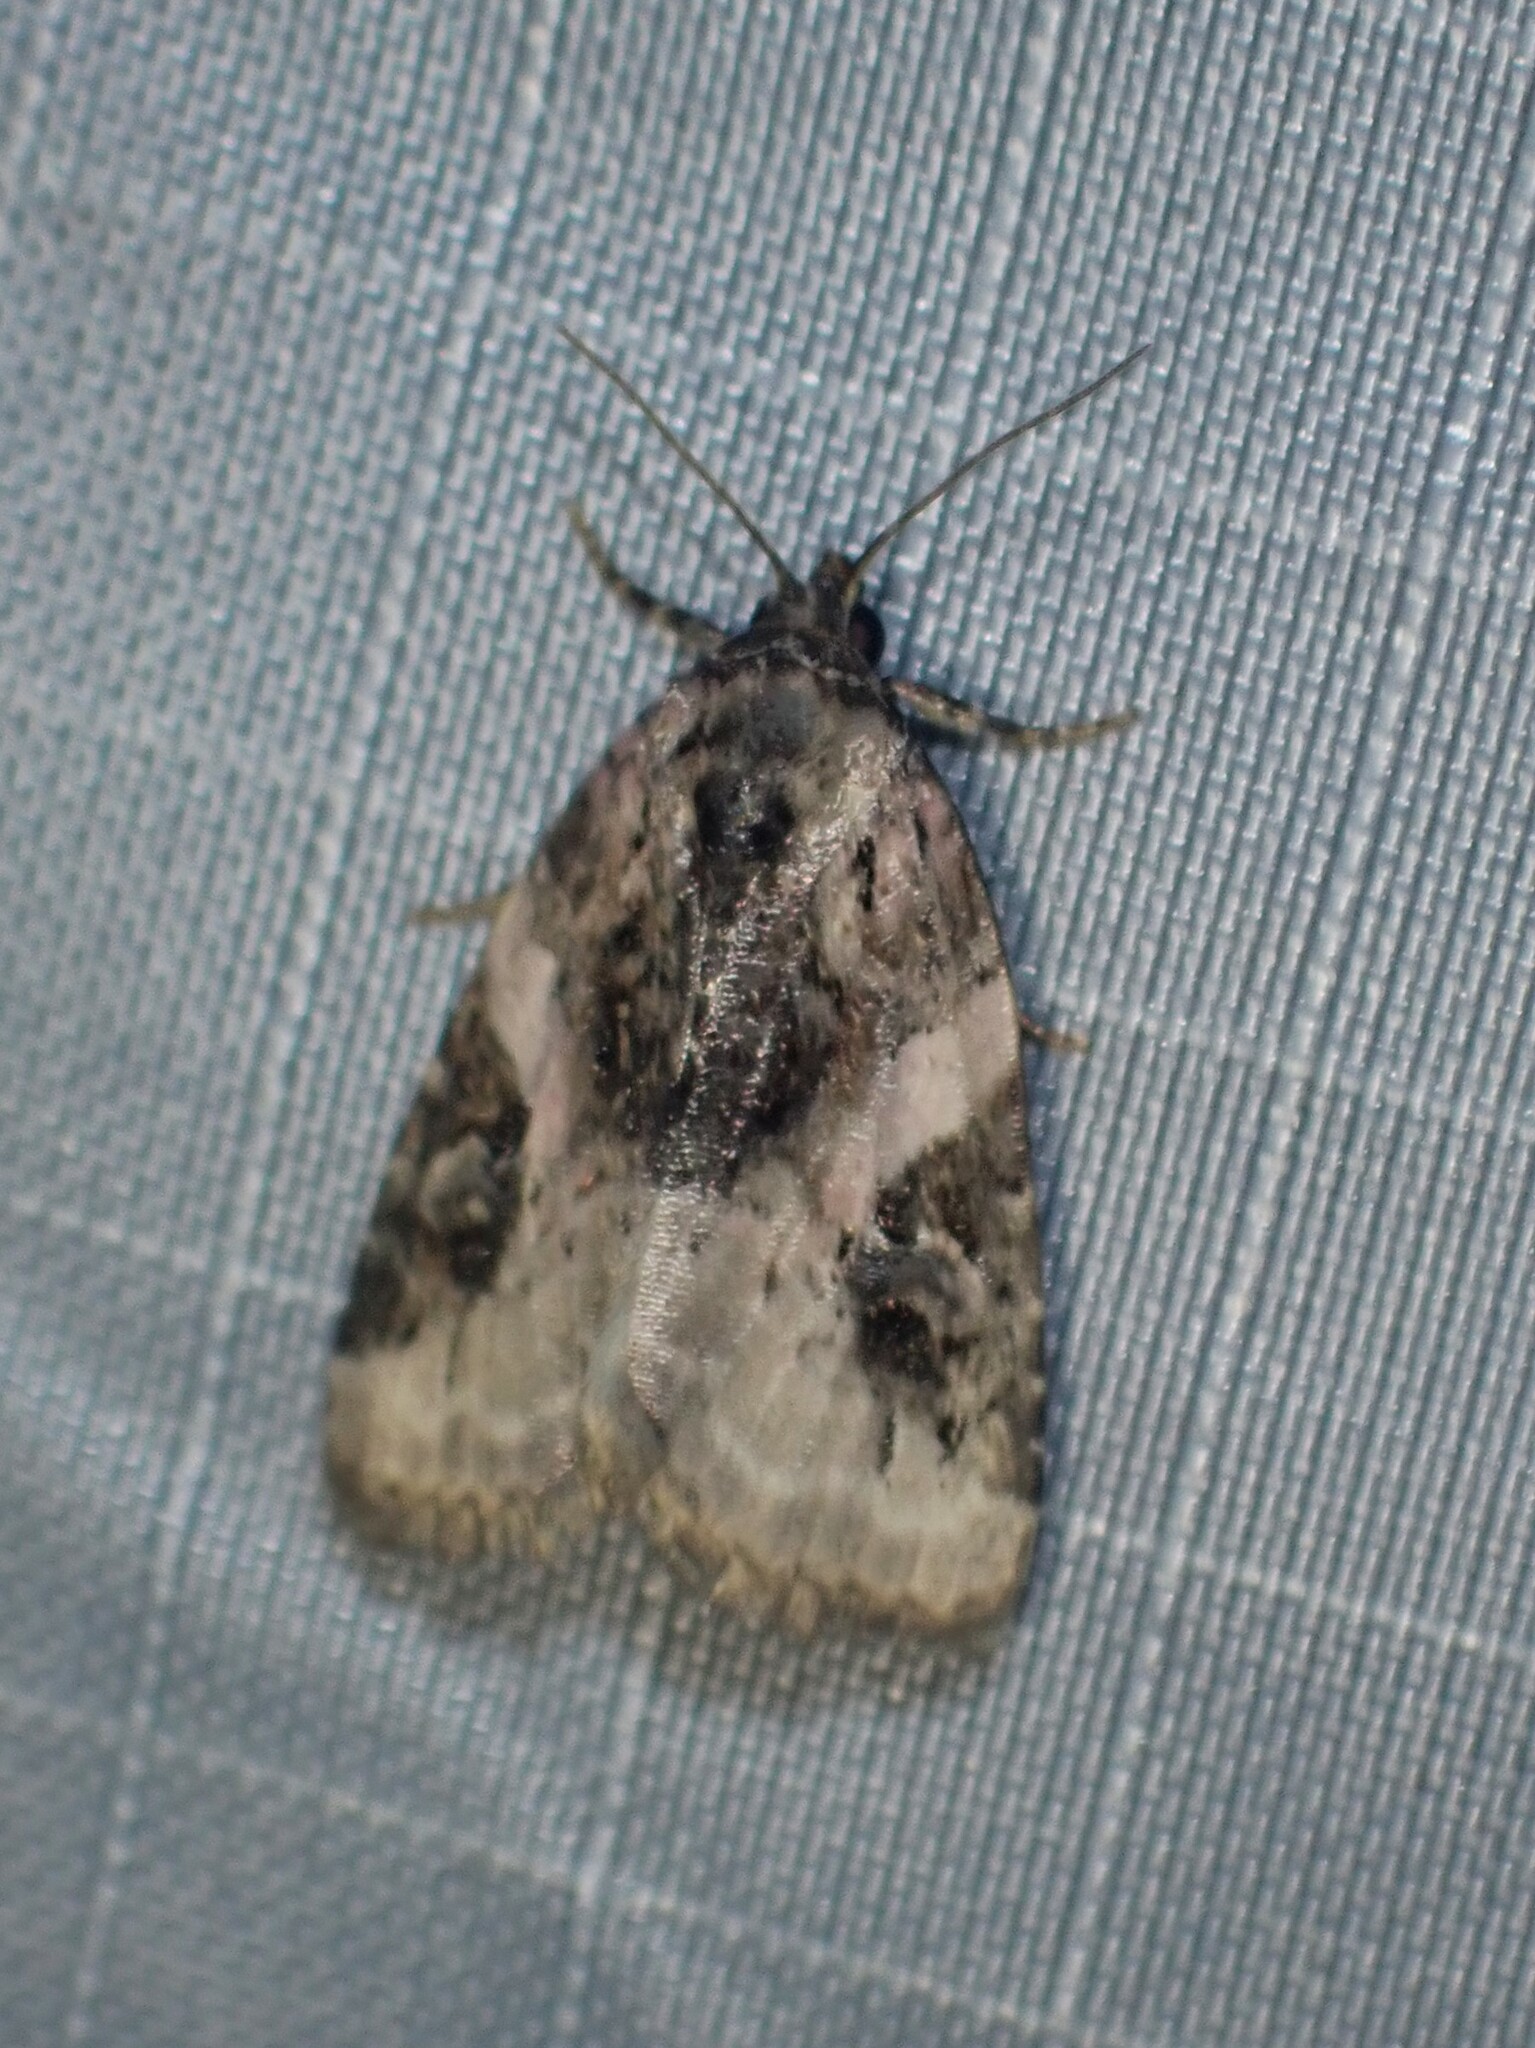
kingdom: Animalia
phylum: Arthropoda
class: Insecta
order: Lepidoptera
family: Noctuidae
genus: Pseudeustrotia
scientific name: Pseudeustrotia carneola
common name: Pink-barred lithacodia moth
